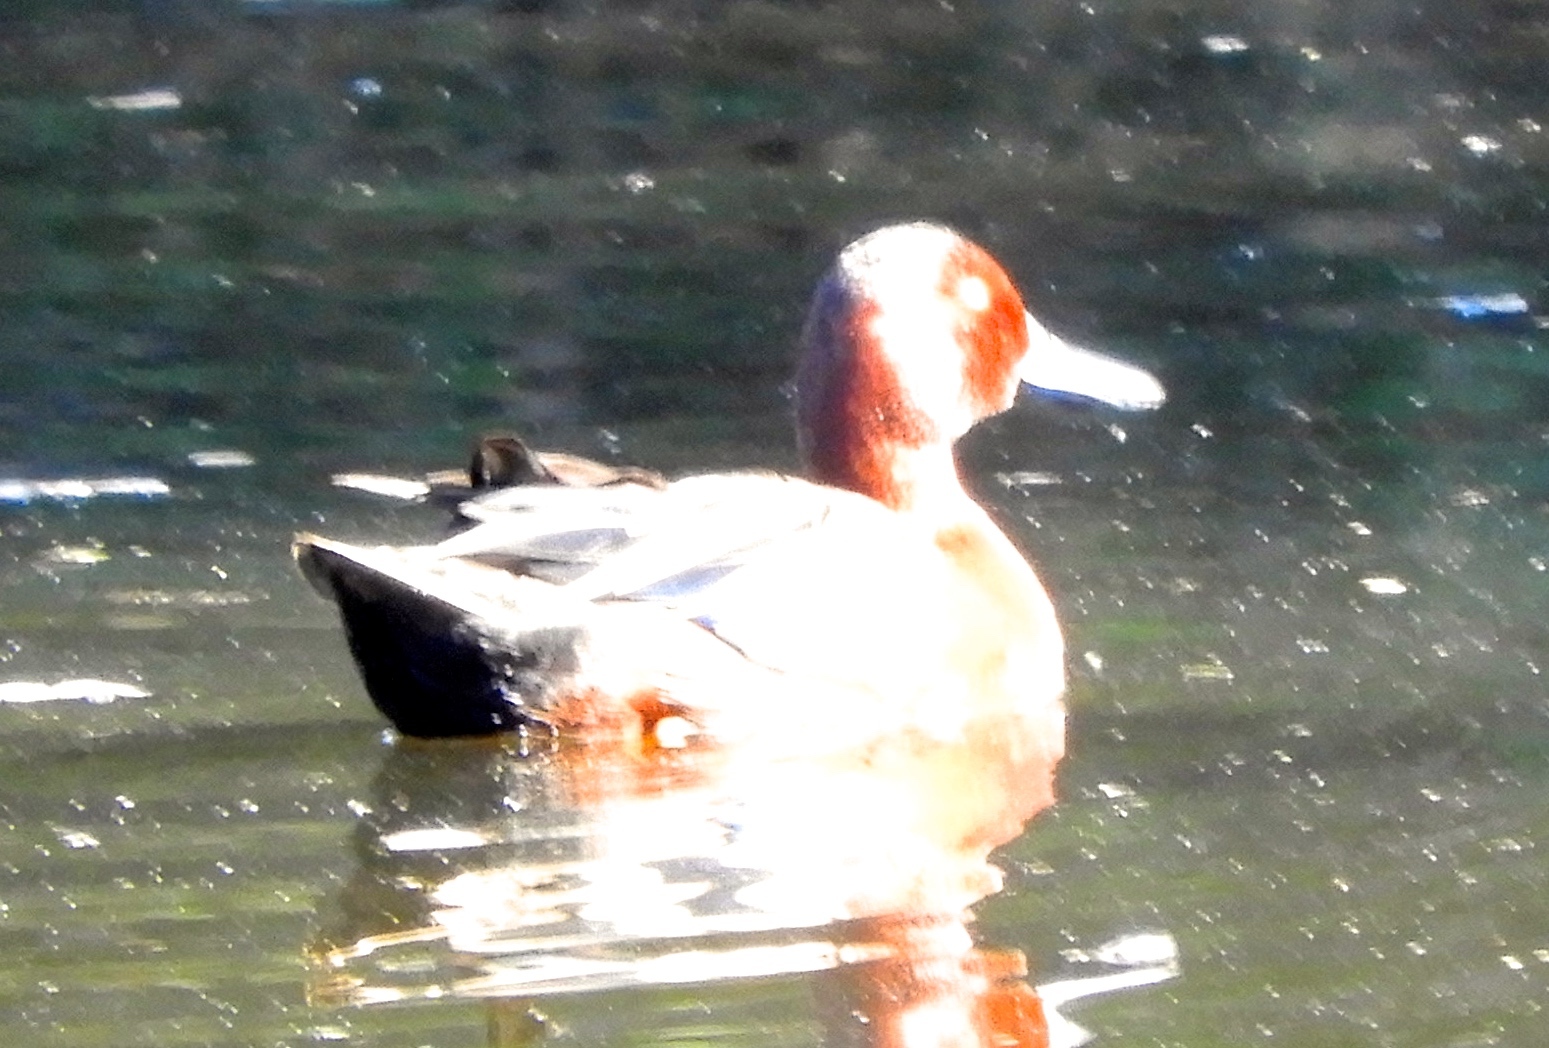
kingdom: Animalia
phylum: Chordata
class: Aves
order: Anseriformes
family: Anatidae
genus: Spatula
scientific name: Spatula cyanoptera
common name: Cinnamon teal
